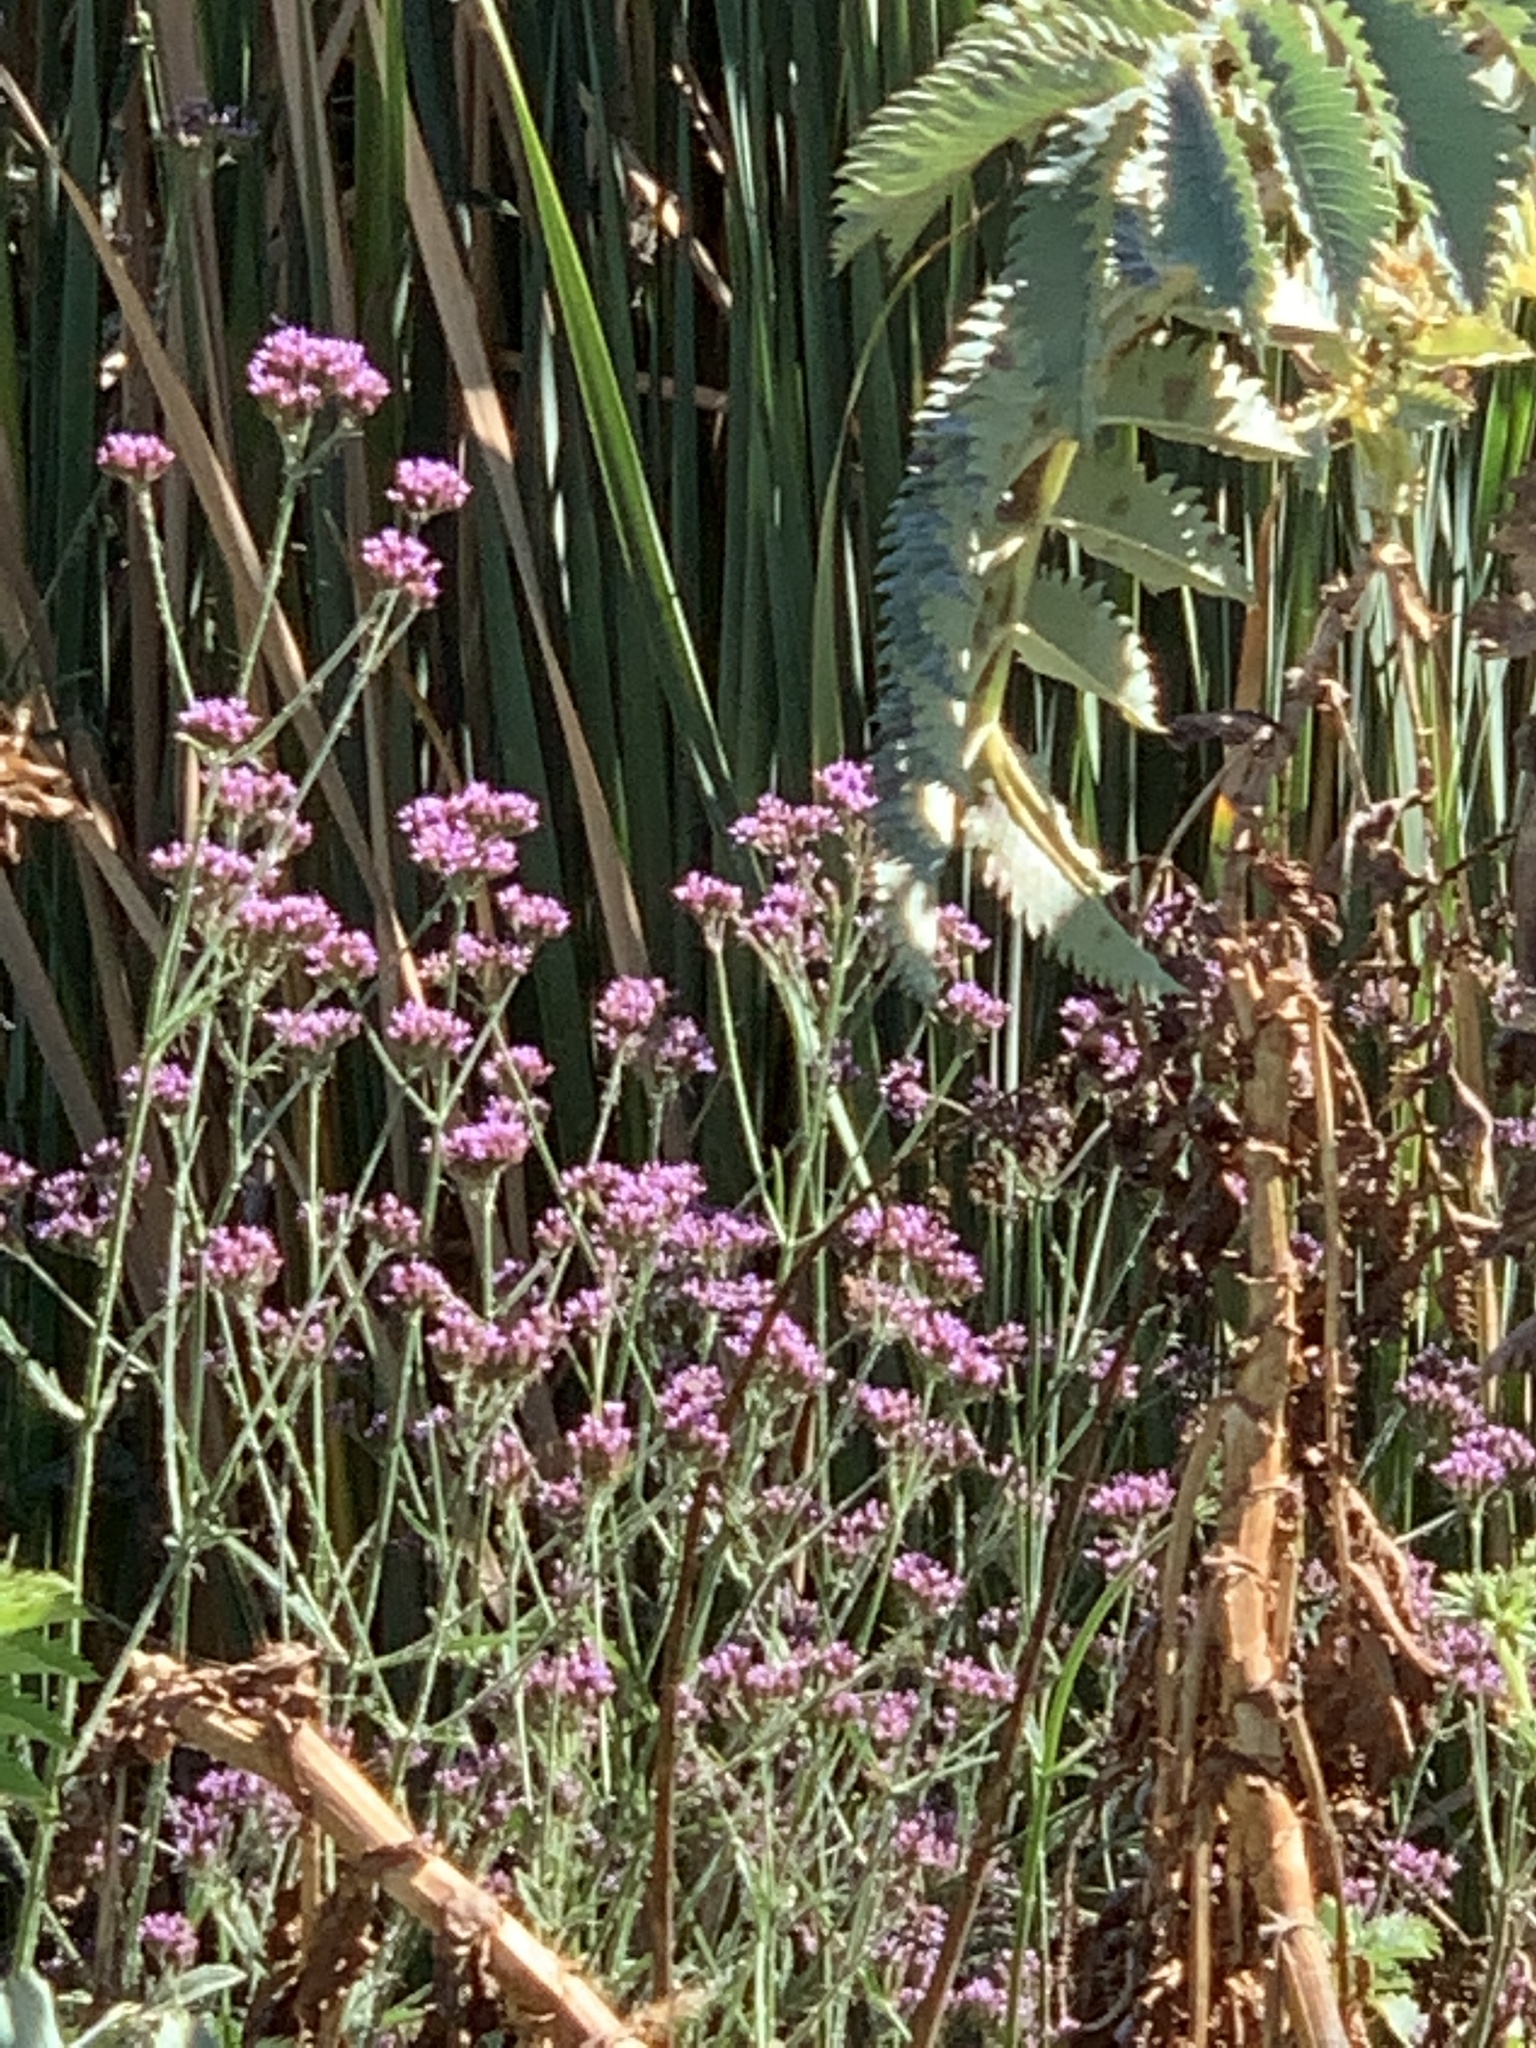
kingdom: Plantae
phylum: Tracheophyta
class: Magnoliopsida
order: Lamiales
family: Verbenaceae
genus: Verbena
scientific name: Verbena bonariensis
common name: Purpletop vervain
